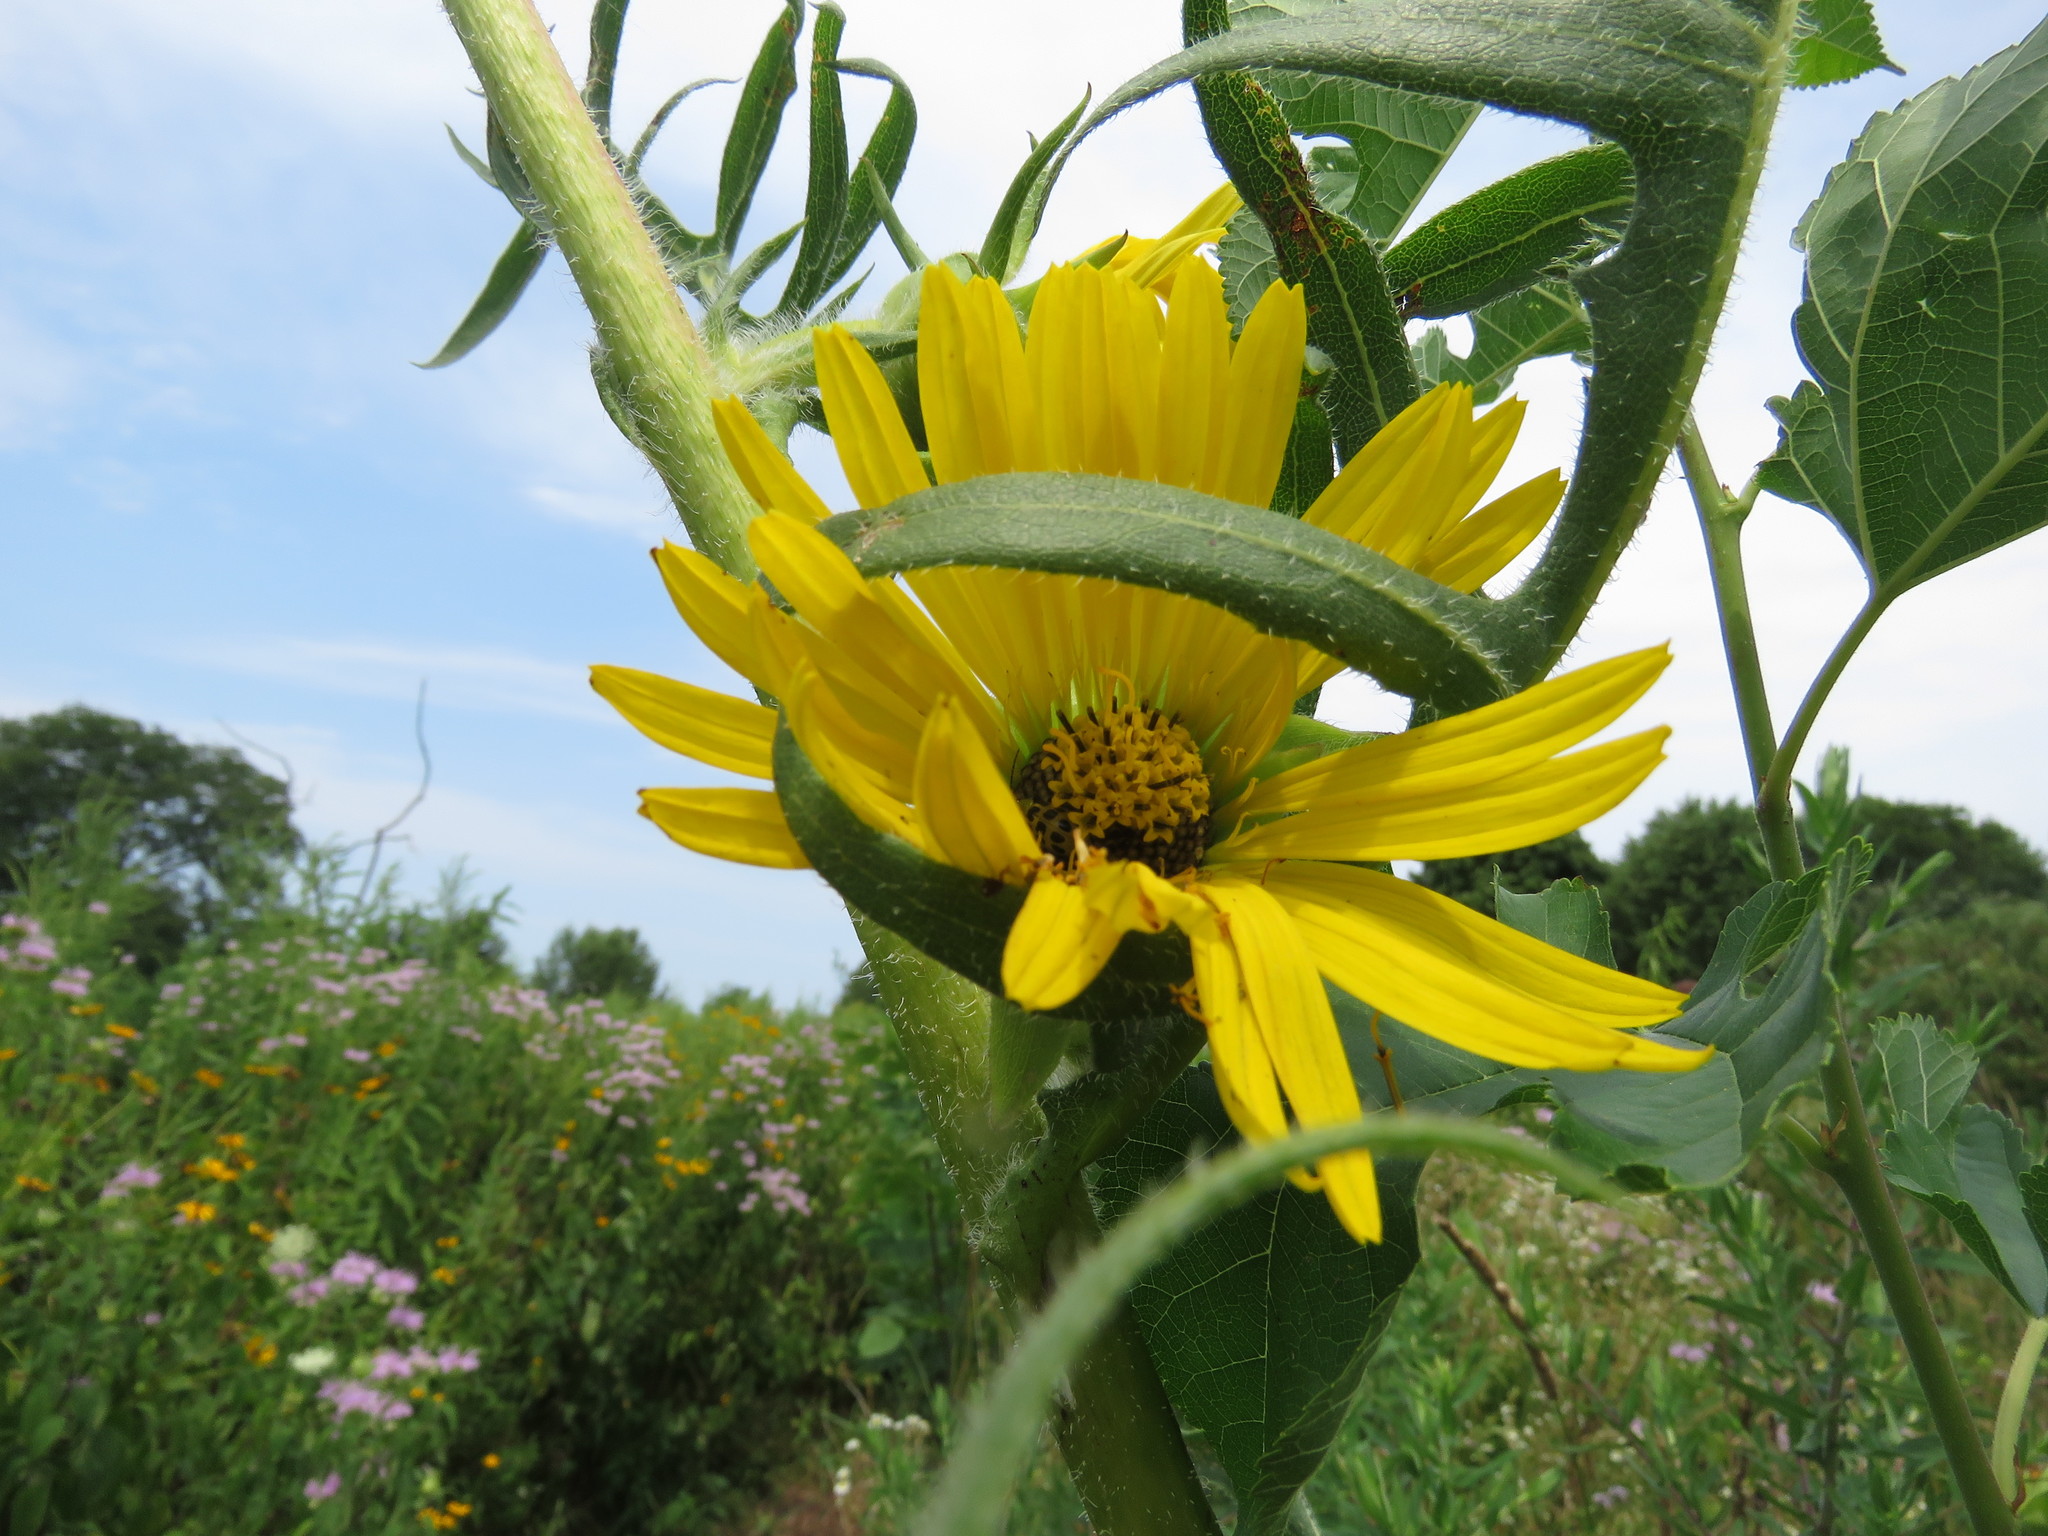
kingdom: Plantae
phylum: Tracheophyta
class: Magnoliopsida
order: Asterales
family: Asteraceae
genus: Silphium
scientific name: Silphium laciniatum
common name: Polarplant
